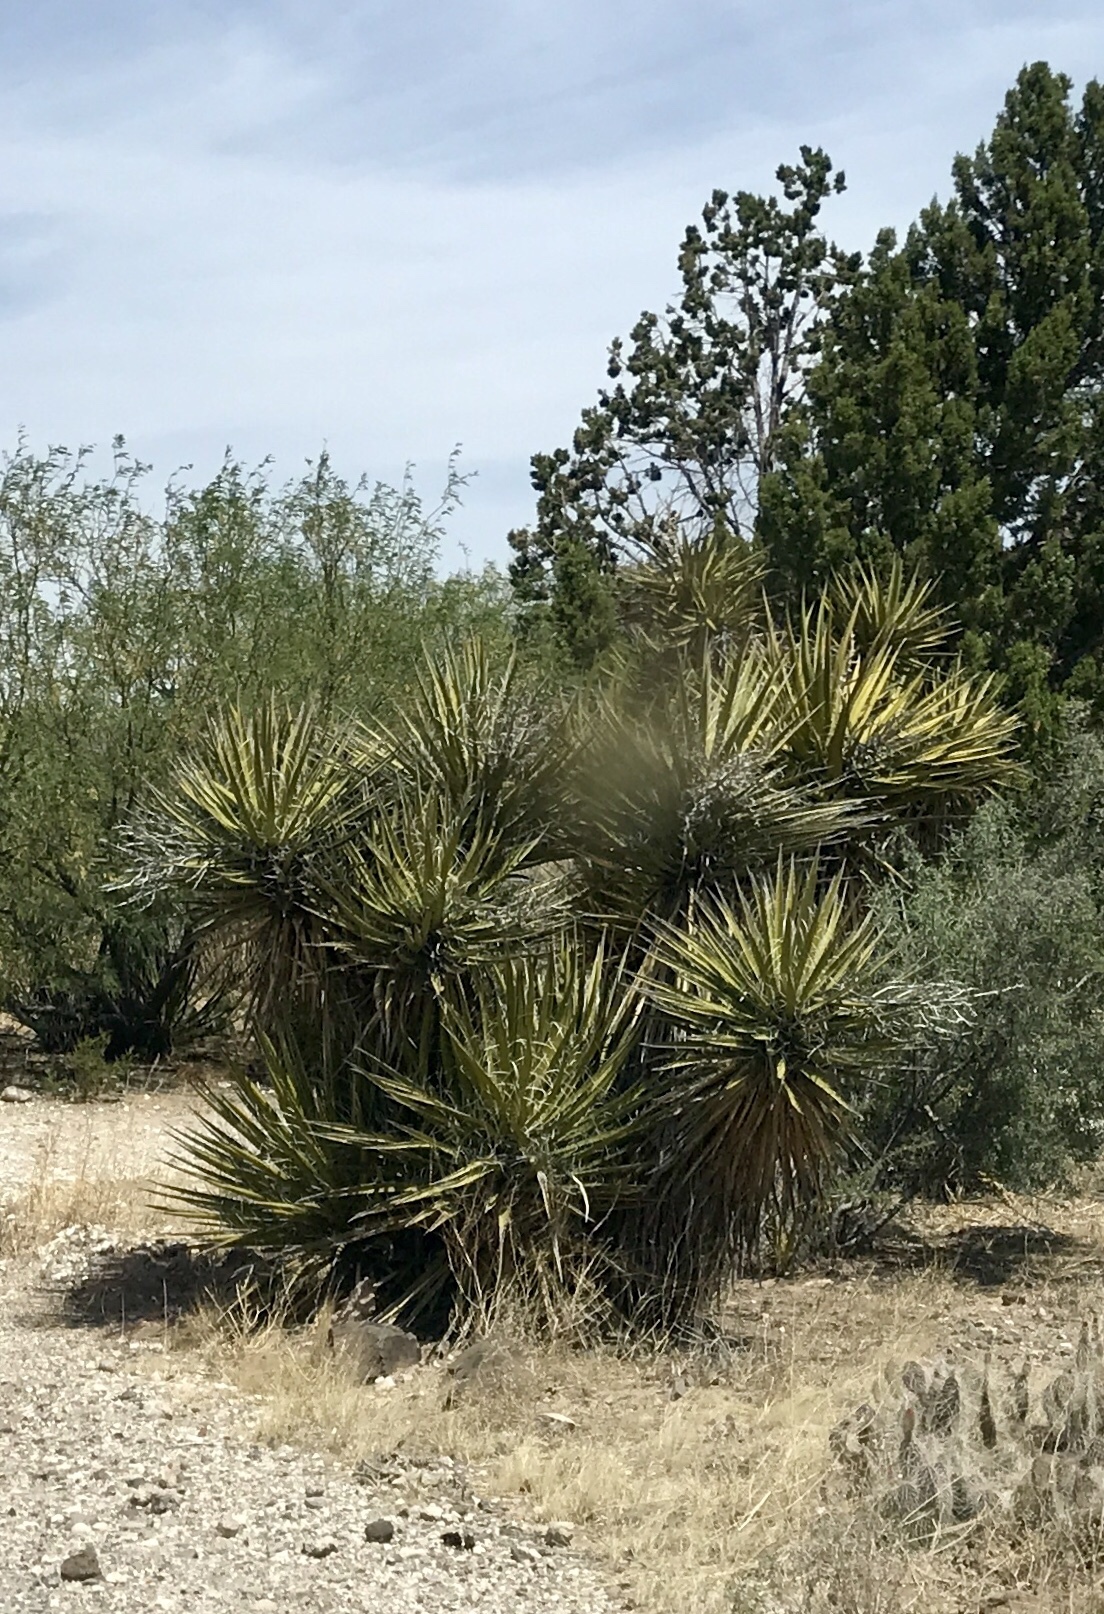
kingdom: Plantae
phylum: Tracheophyta
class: Liliopsida
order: Asparagales
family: Asparagaceae
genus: Yucca
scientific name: Yucca schidigera
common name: Mojave yucca
